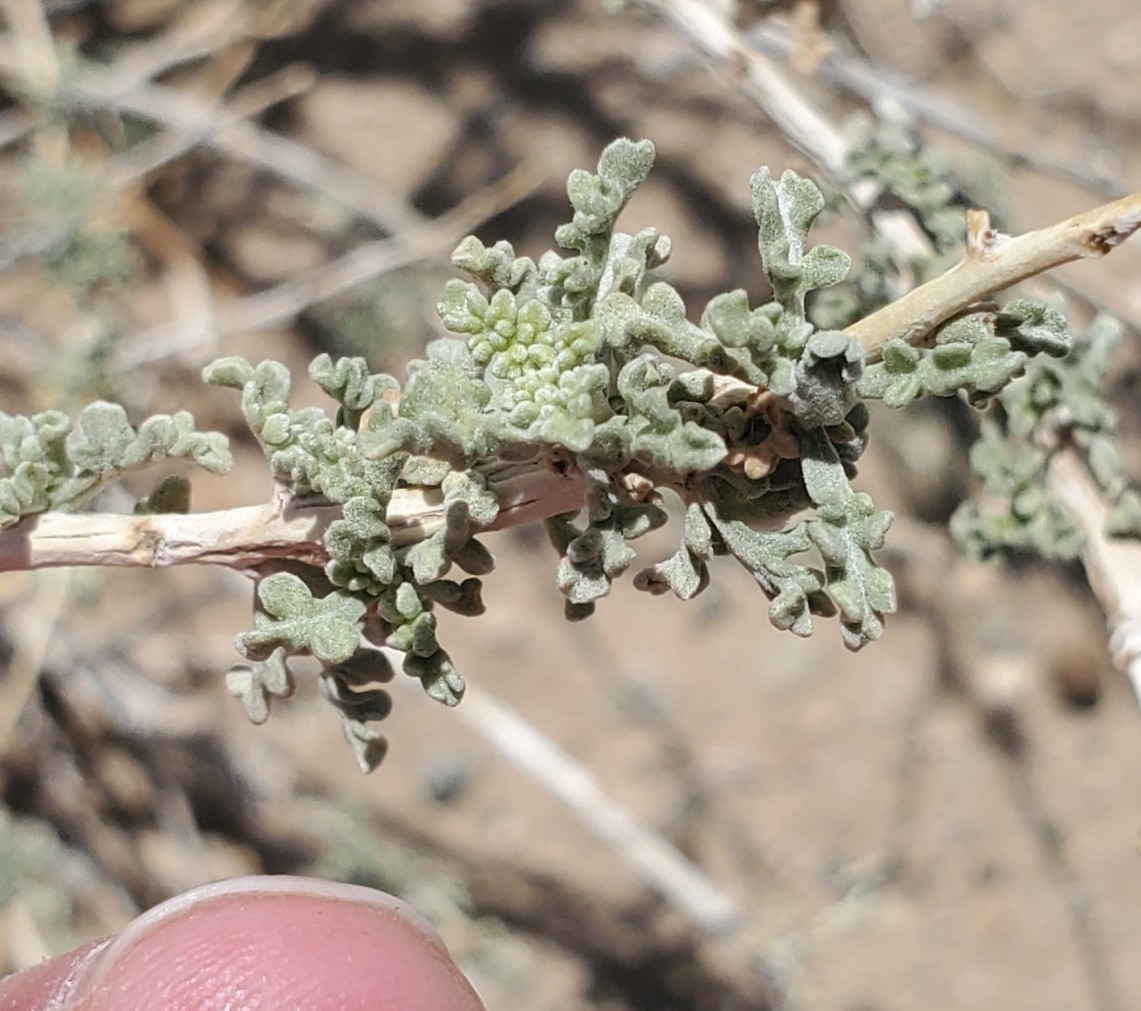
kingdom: Plantae
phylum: Tracheophyta
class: Magnoliopsida
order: Asterales
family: Asteraceae
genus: Ambrosia
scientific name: Ambrosia dumosa
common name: Bur-sage
